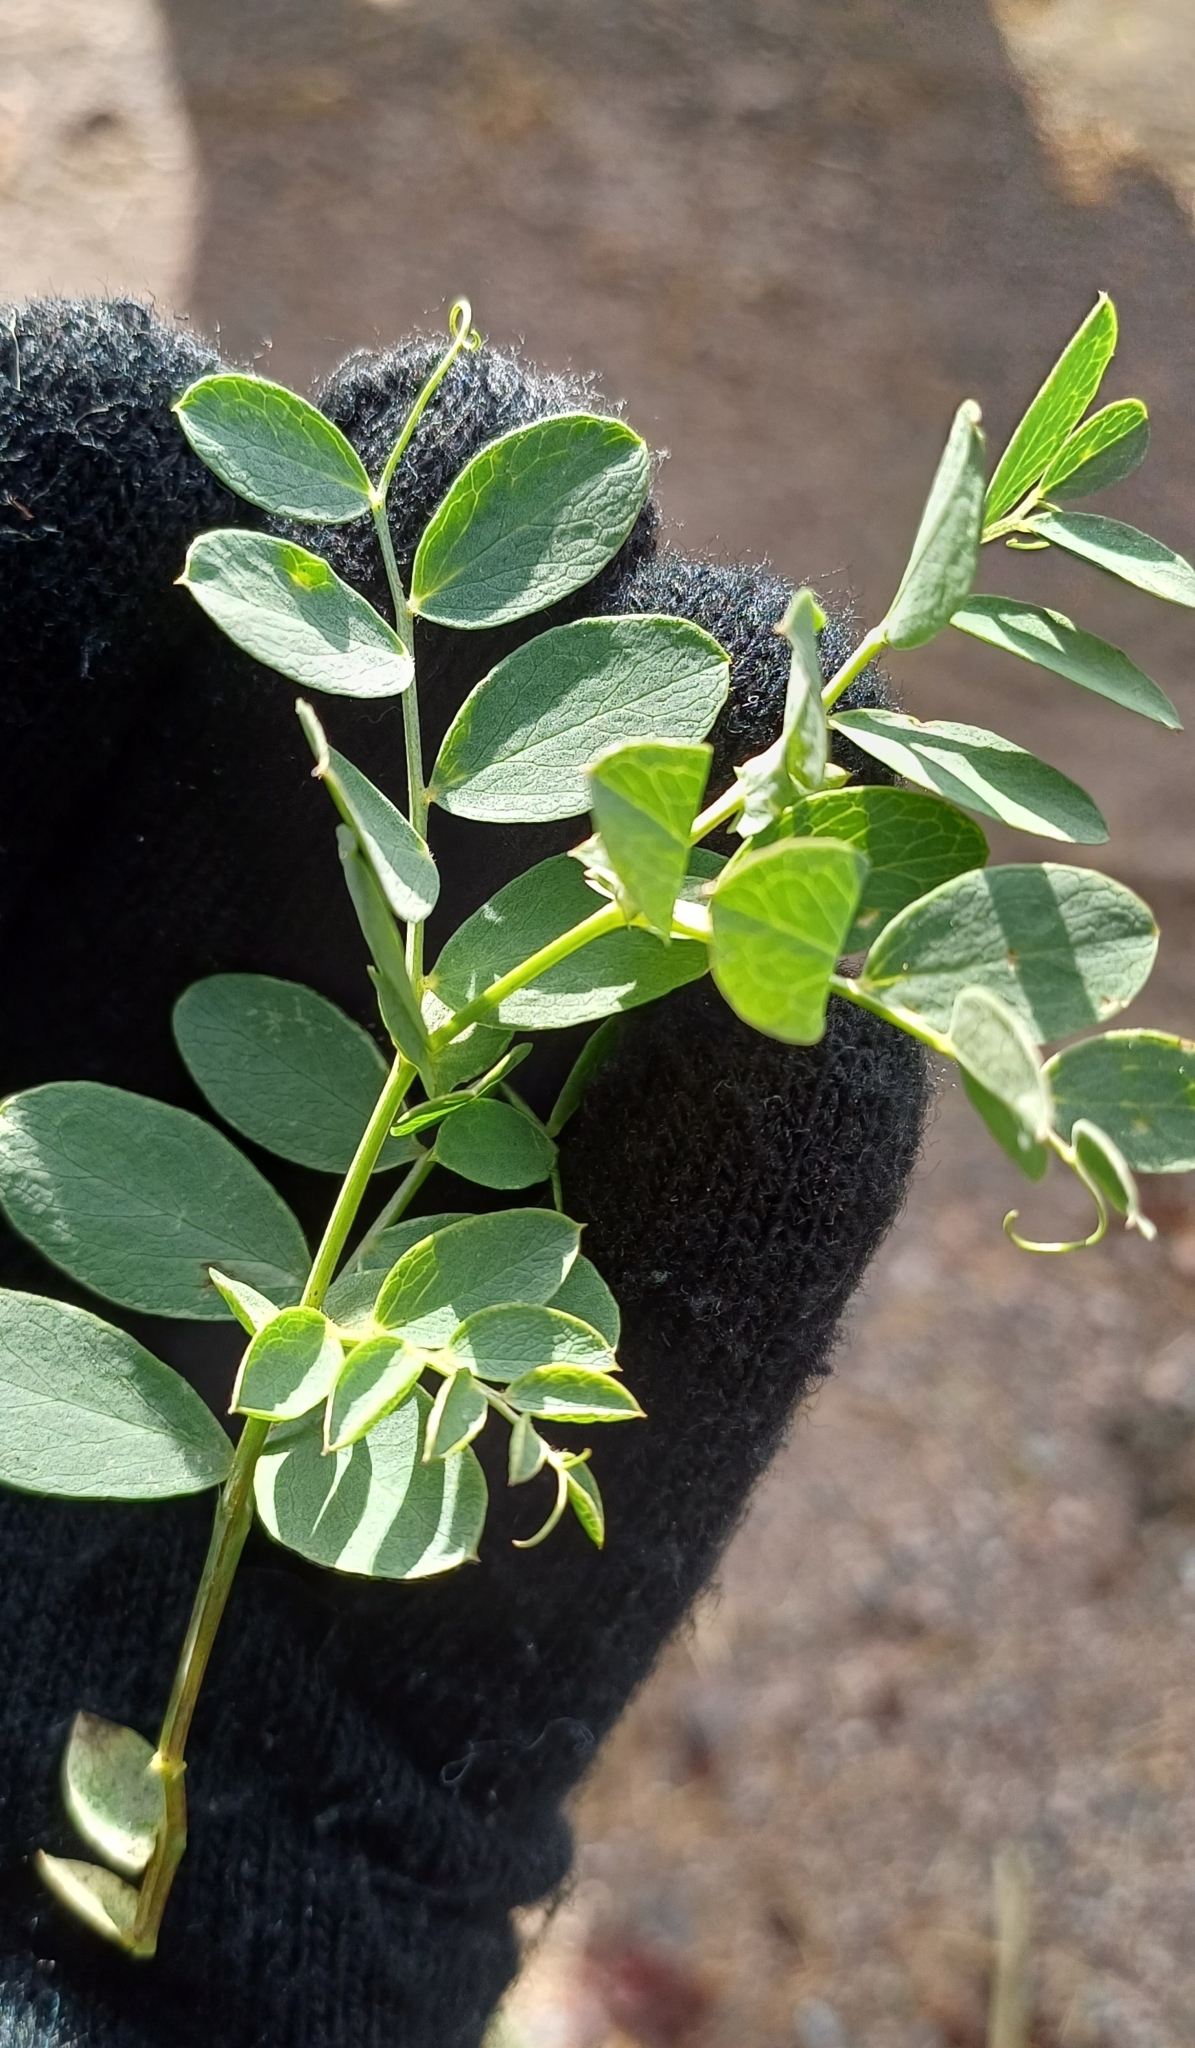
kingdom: Plantae
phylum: Tracheophyta
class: Magnoliopsida
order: Fabales
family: Fabaceae
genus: Lathyrus
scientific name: Lathyrus japonicus
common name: Sea pea
